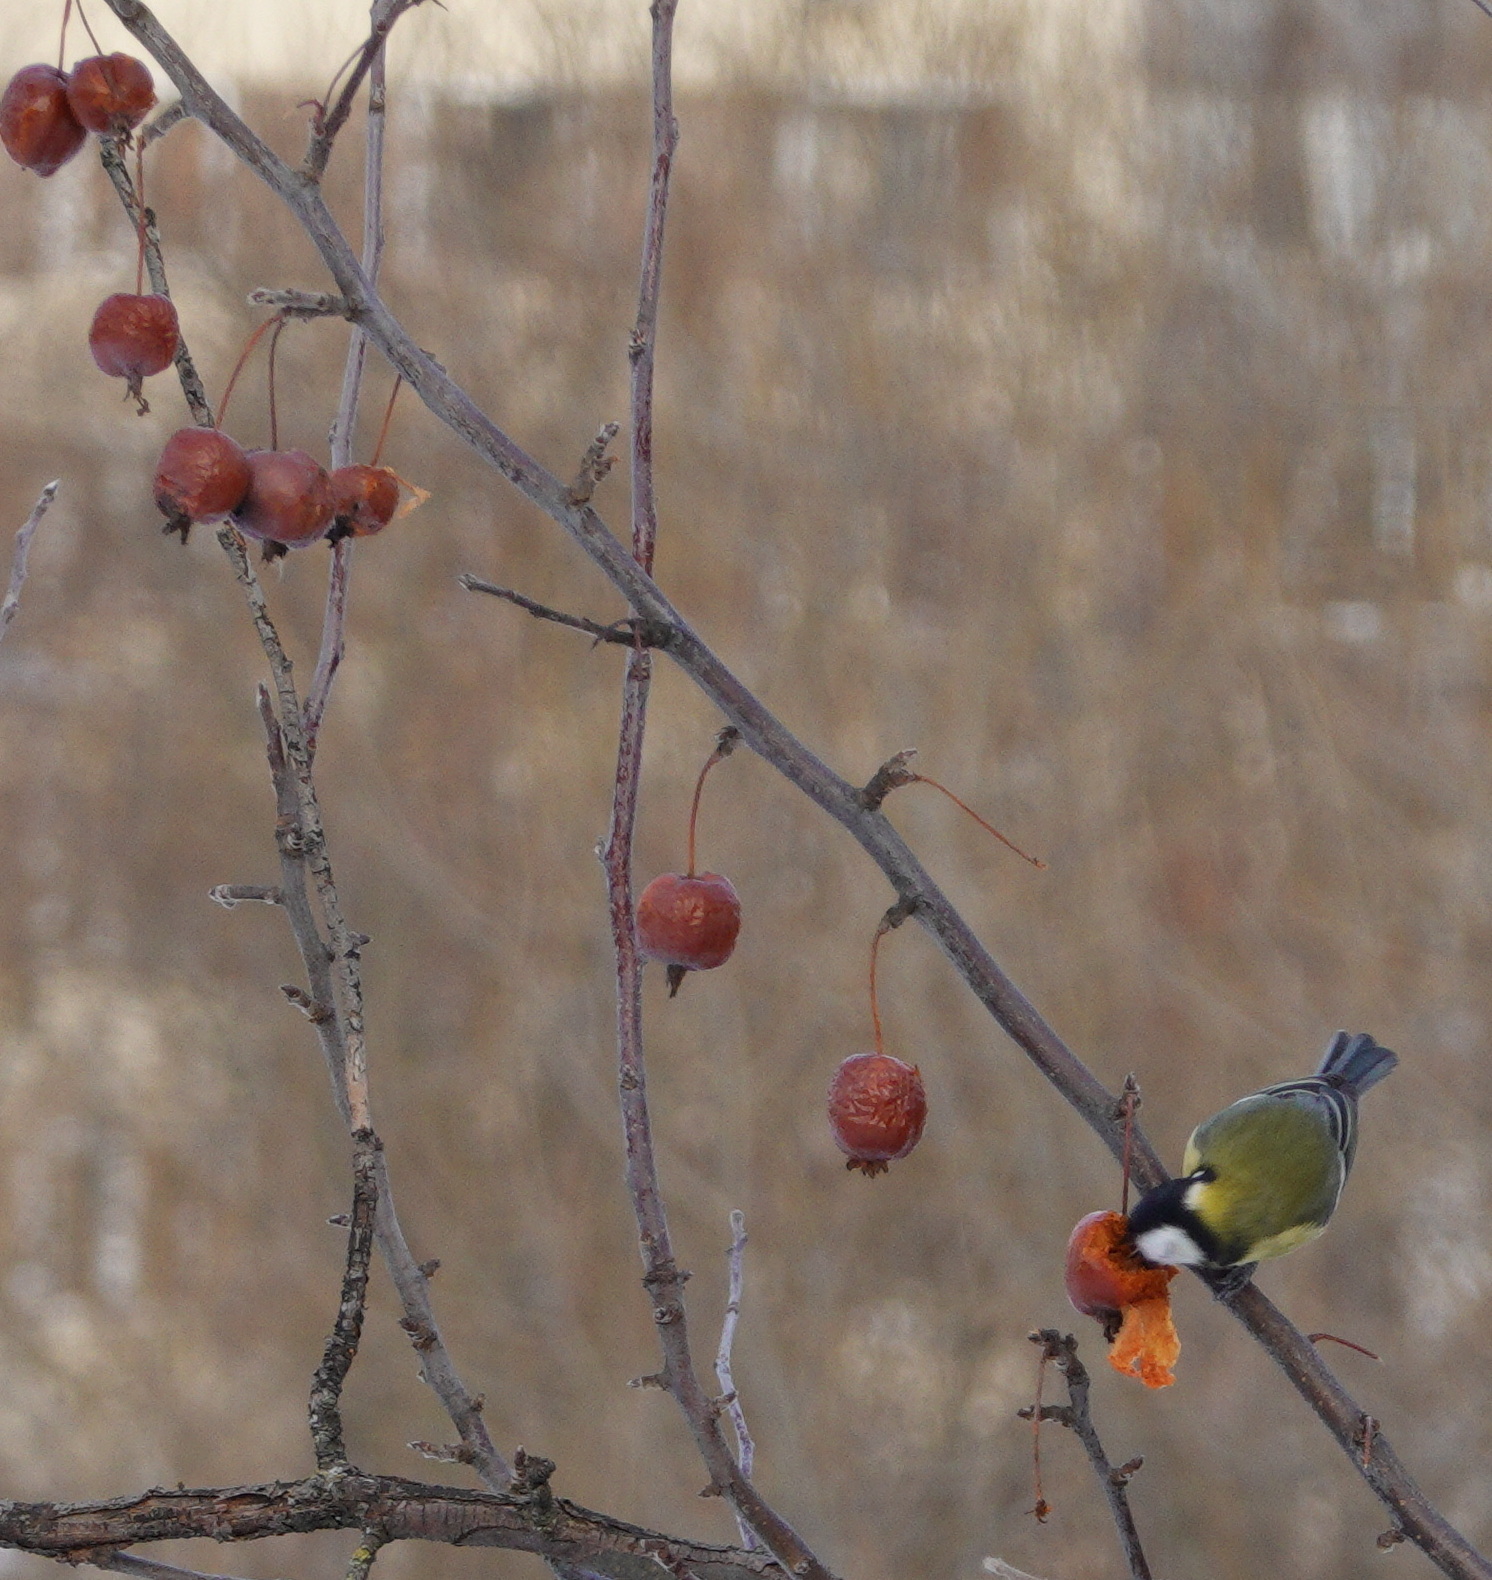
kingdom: Animalia
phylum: Chordata
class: Aves
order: Passeriformes
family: Paridae
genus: Parus
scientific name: Parus major
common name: Great tit
